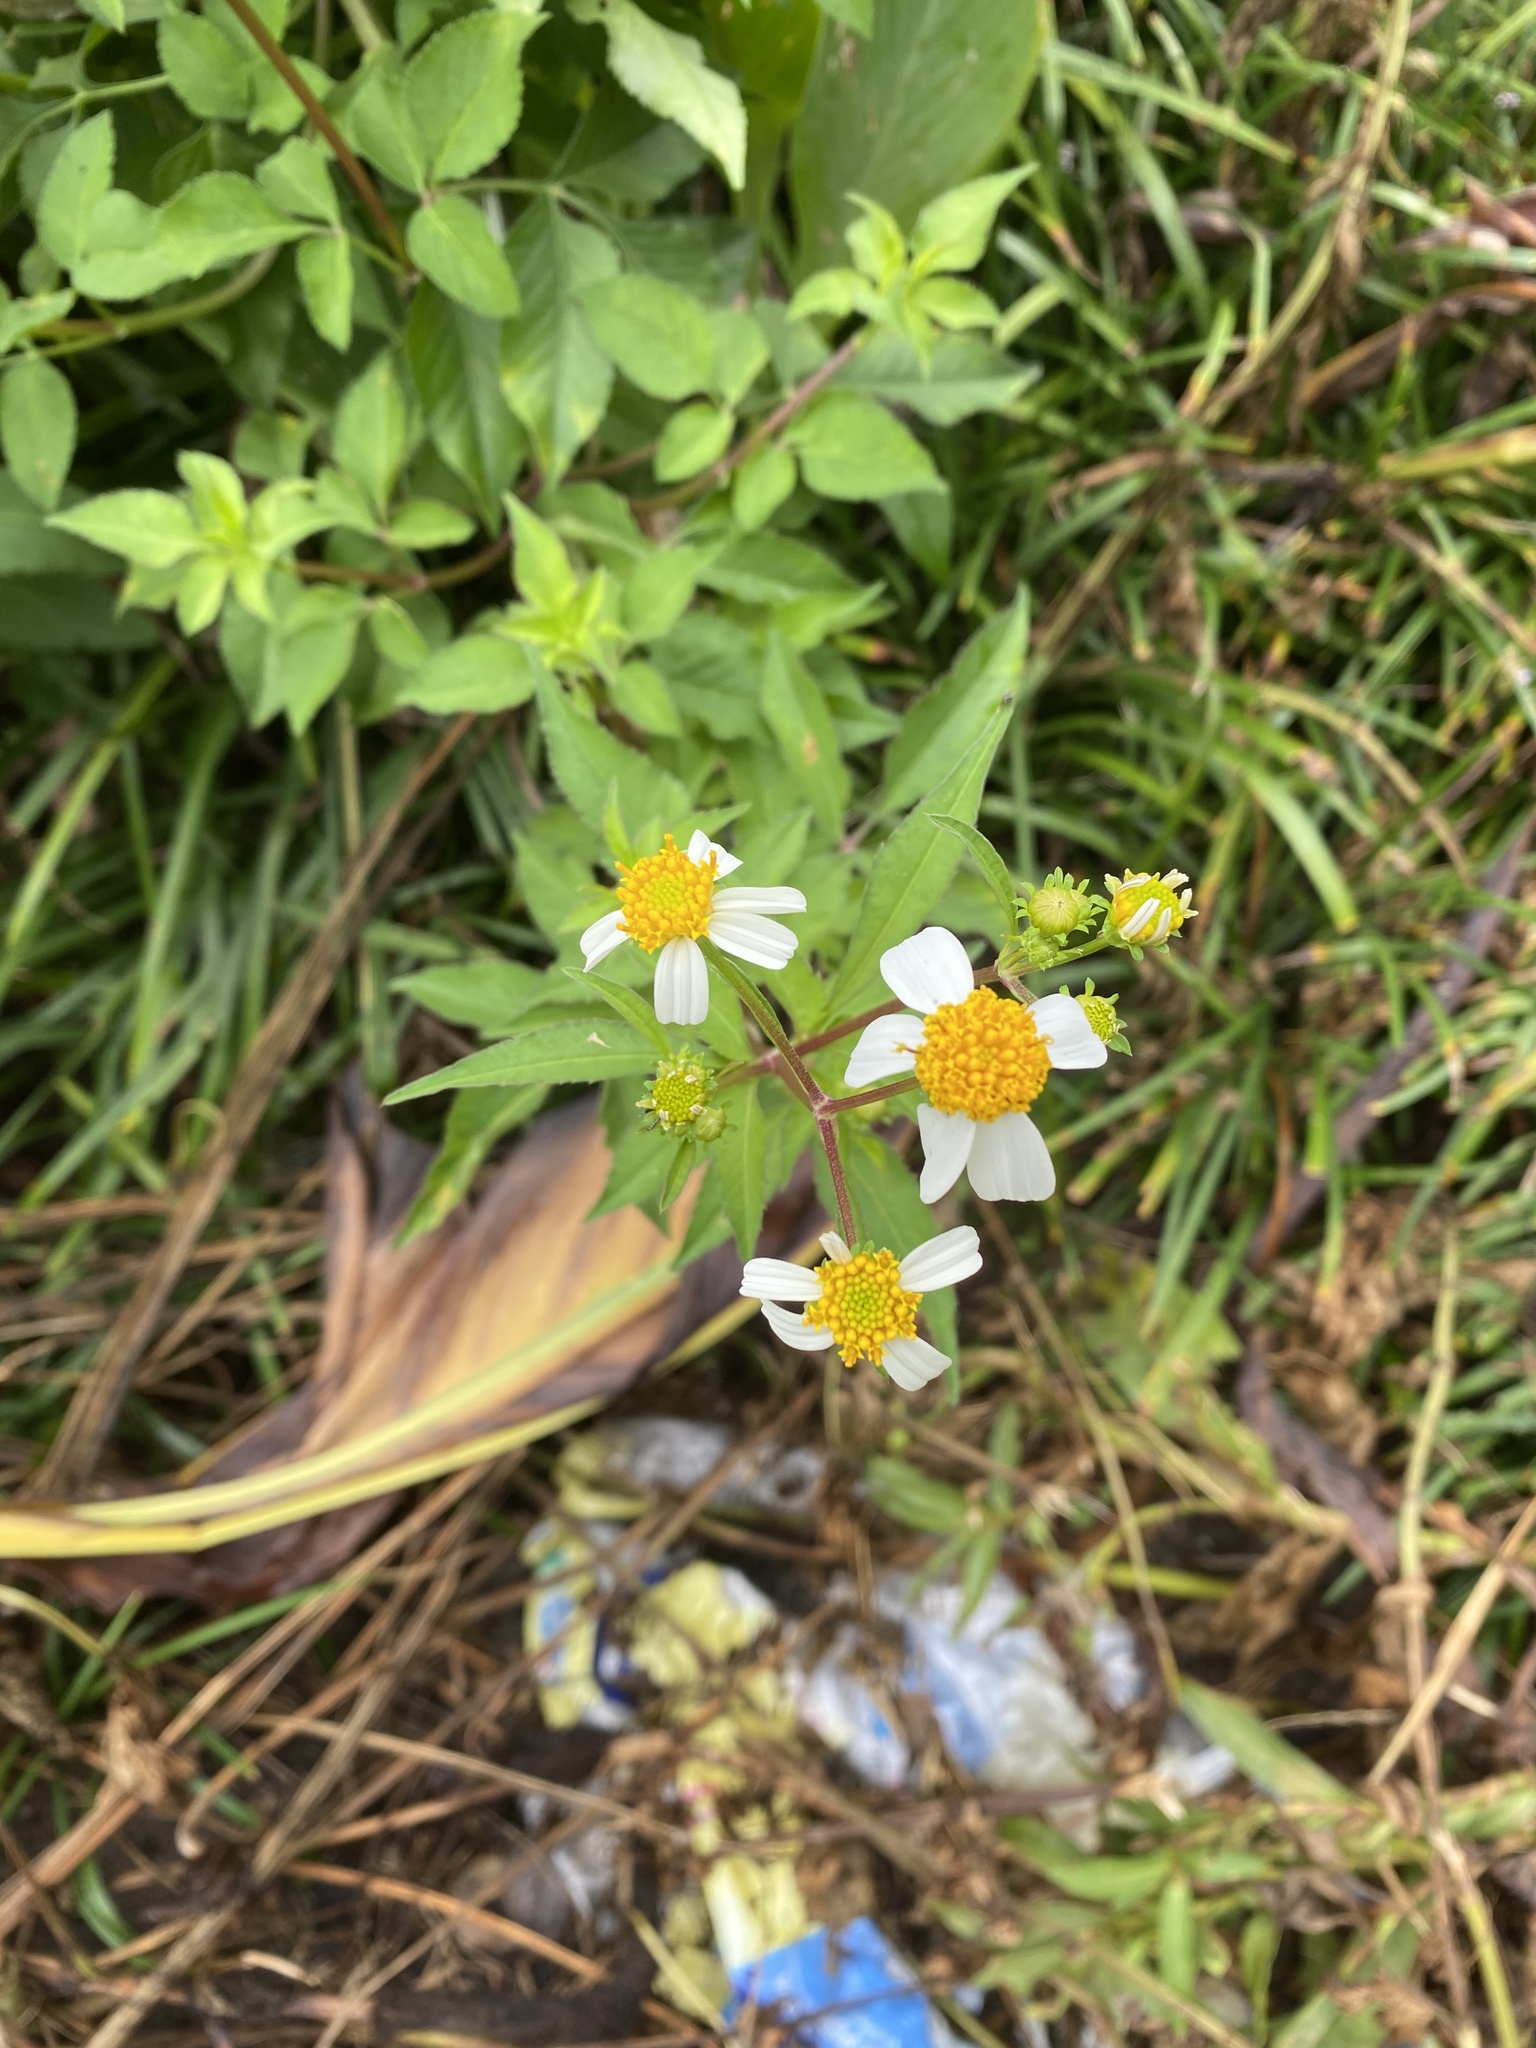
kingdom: Plantae
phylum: Tracheophyta
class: Magnoliopsida
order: Asterales
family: Asteraceae
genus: Bidens
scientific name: Bidens alba
